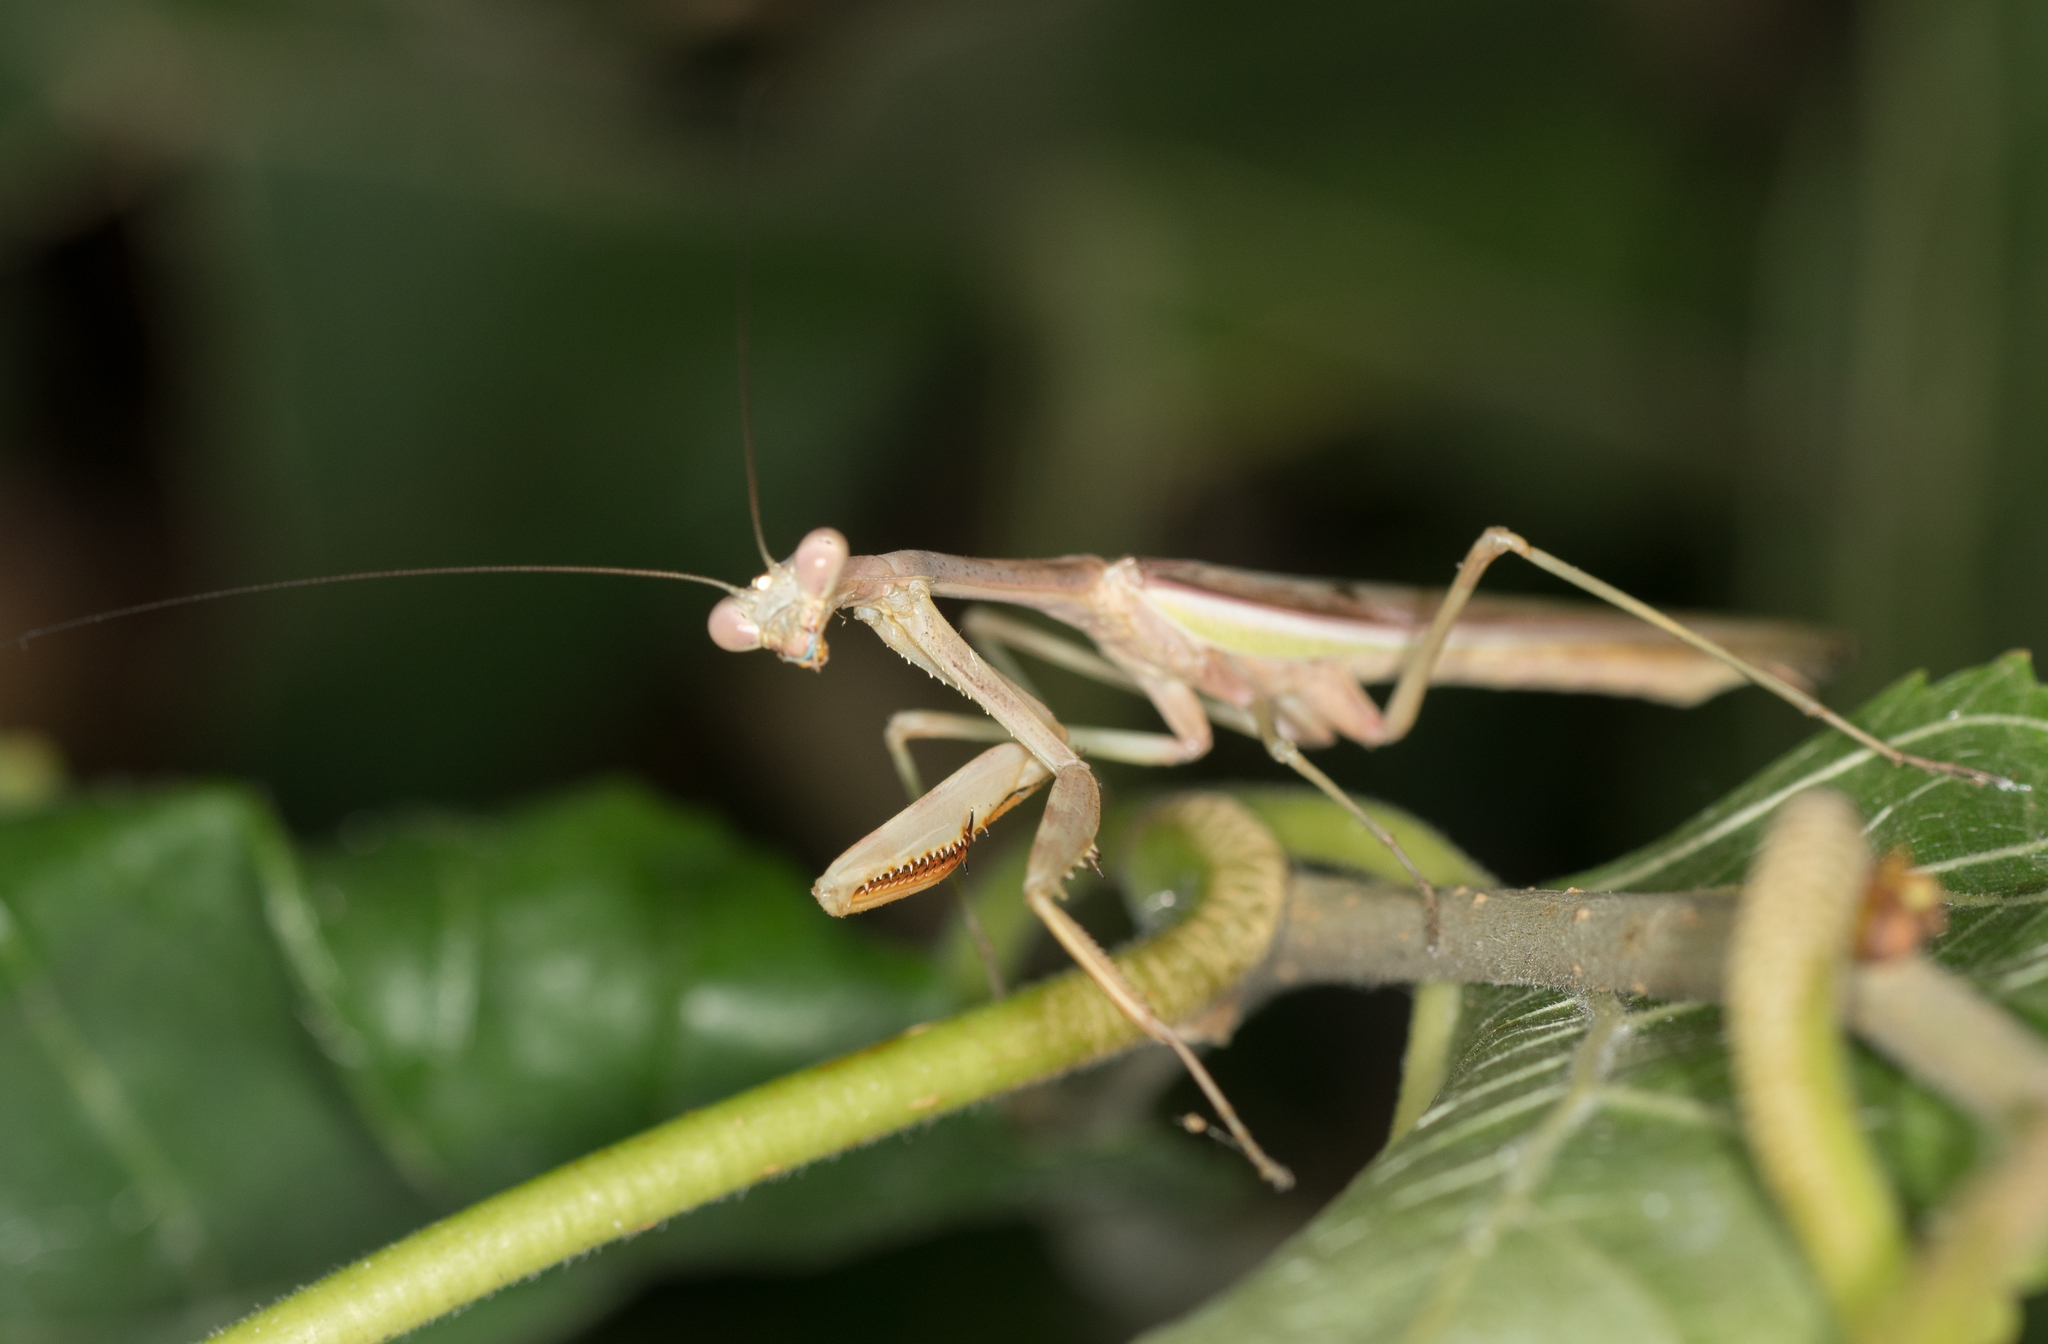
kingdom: Animalia
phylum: Arthropoda
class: Insecta
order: Mantodea
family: Mantidae
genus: Stagmomantis
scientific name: Stagmomantis limbata
